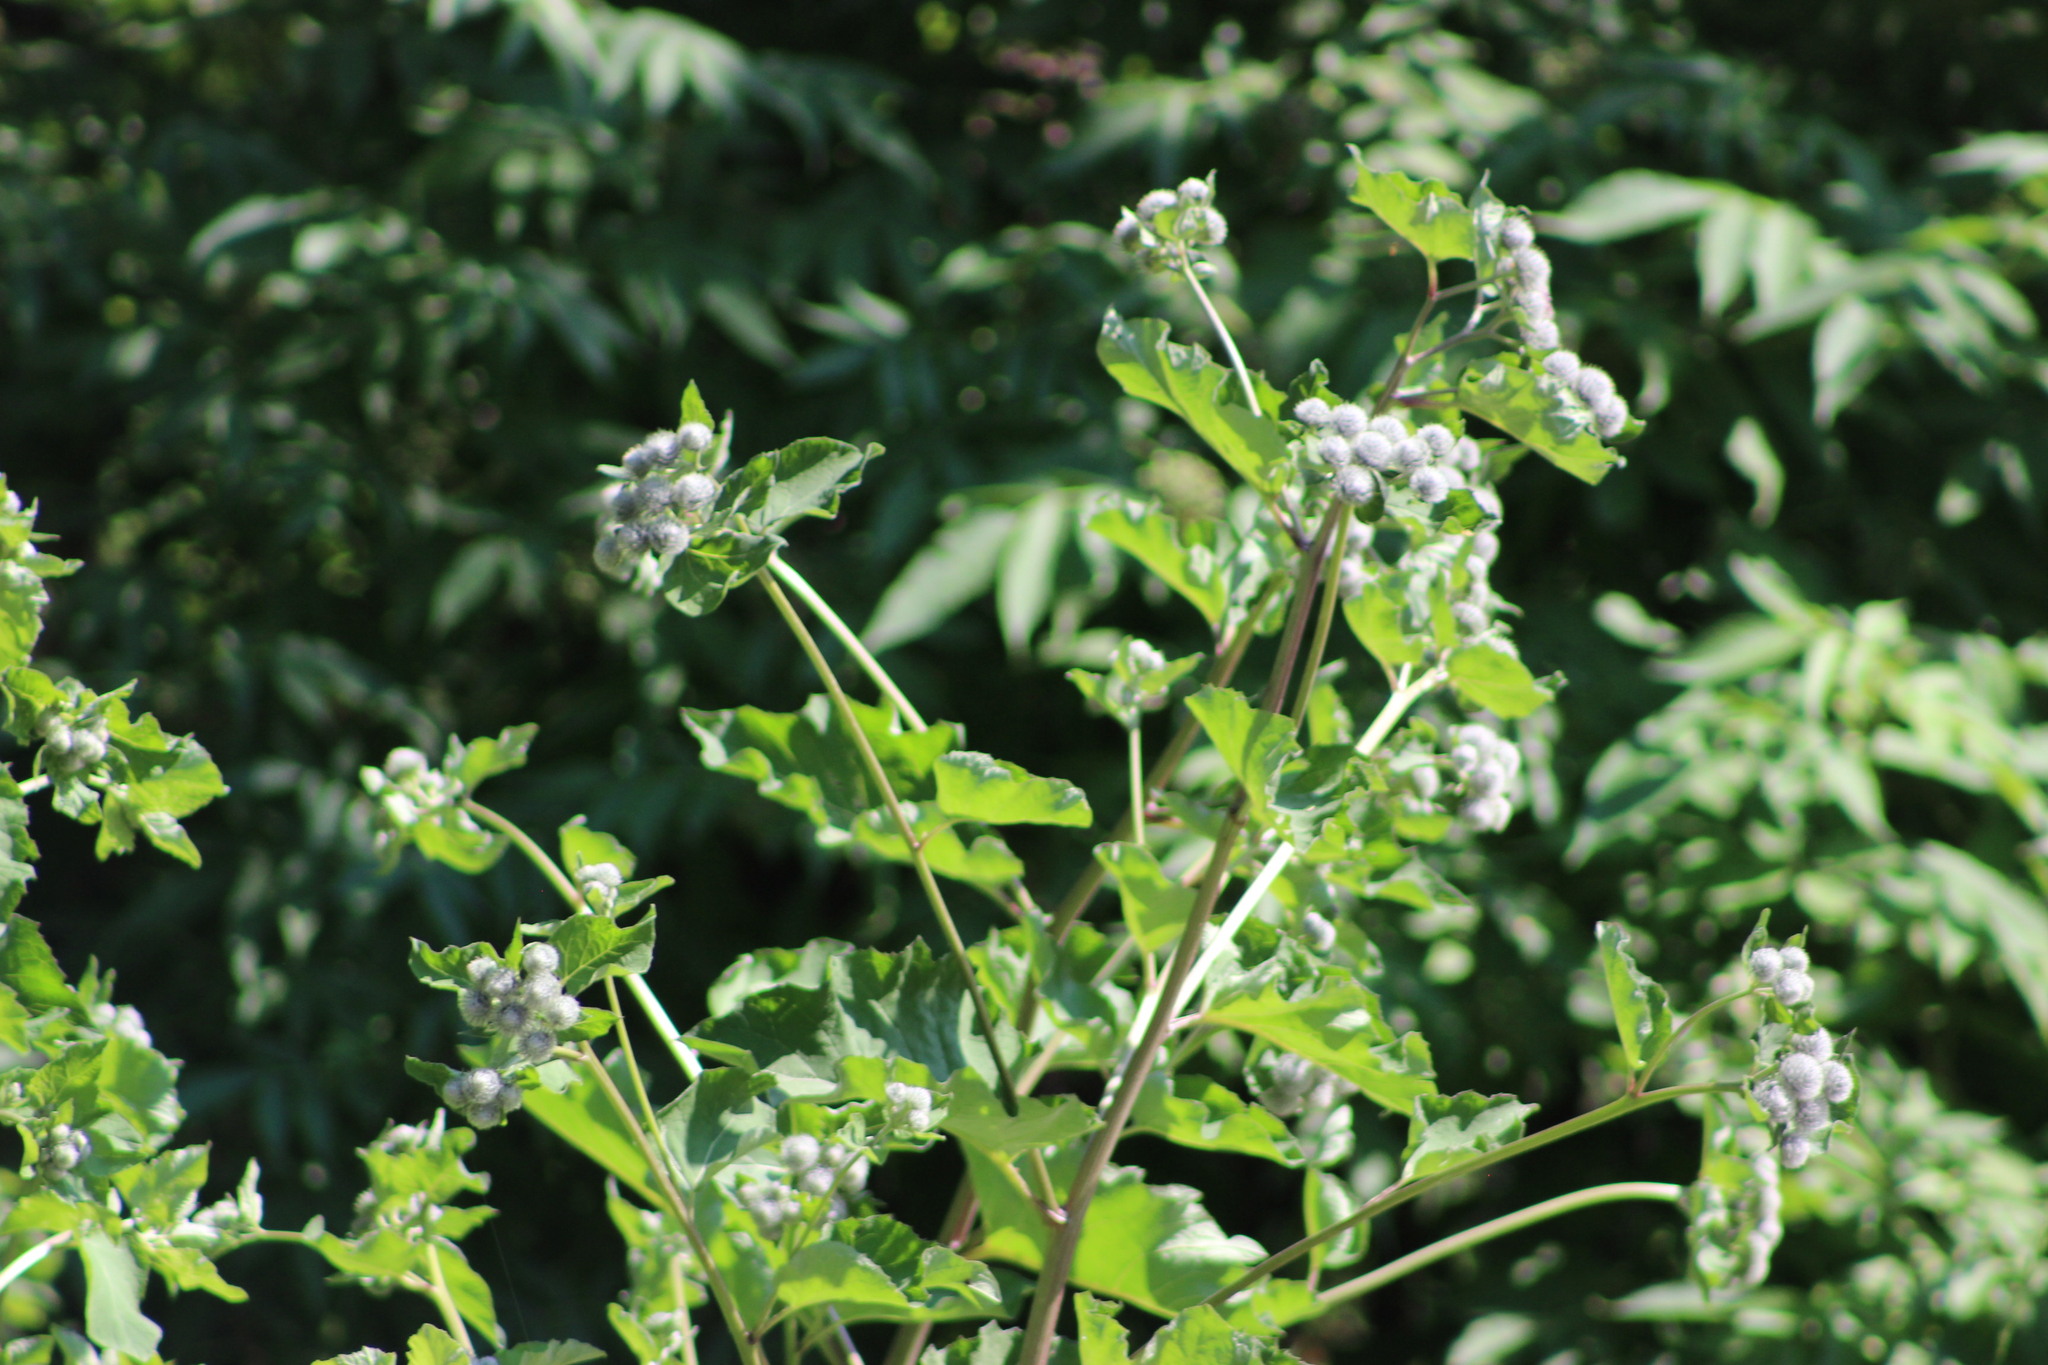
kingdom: Plantae
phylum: Tracheophyta
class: Magnoliopsida
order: Asterales
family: Asteraceae
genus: Arctium
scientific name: Arctium tomentosum
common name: Woolly burdock
